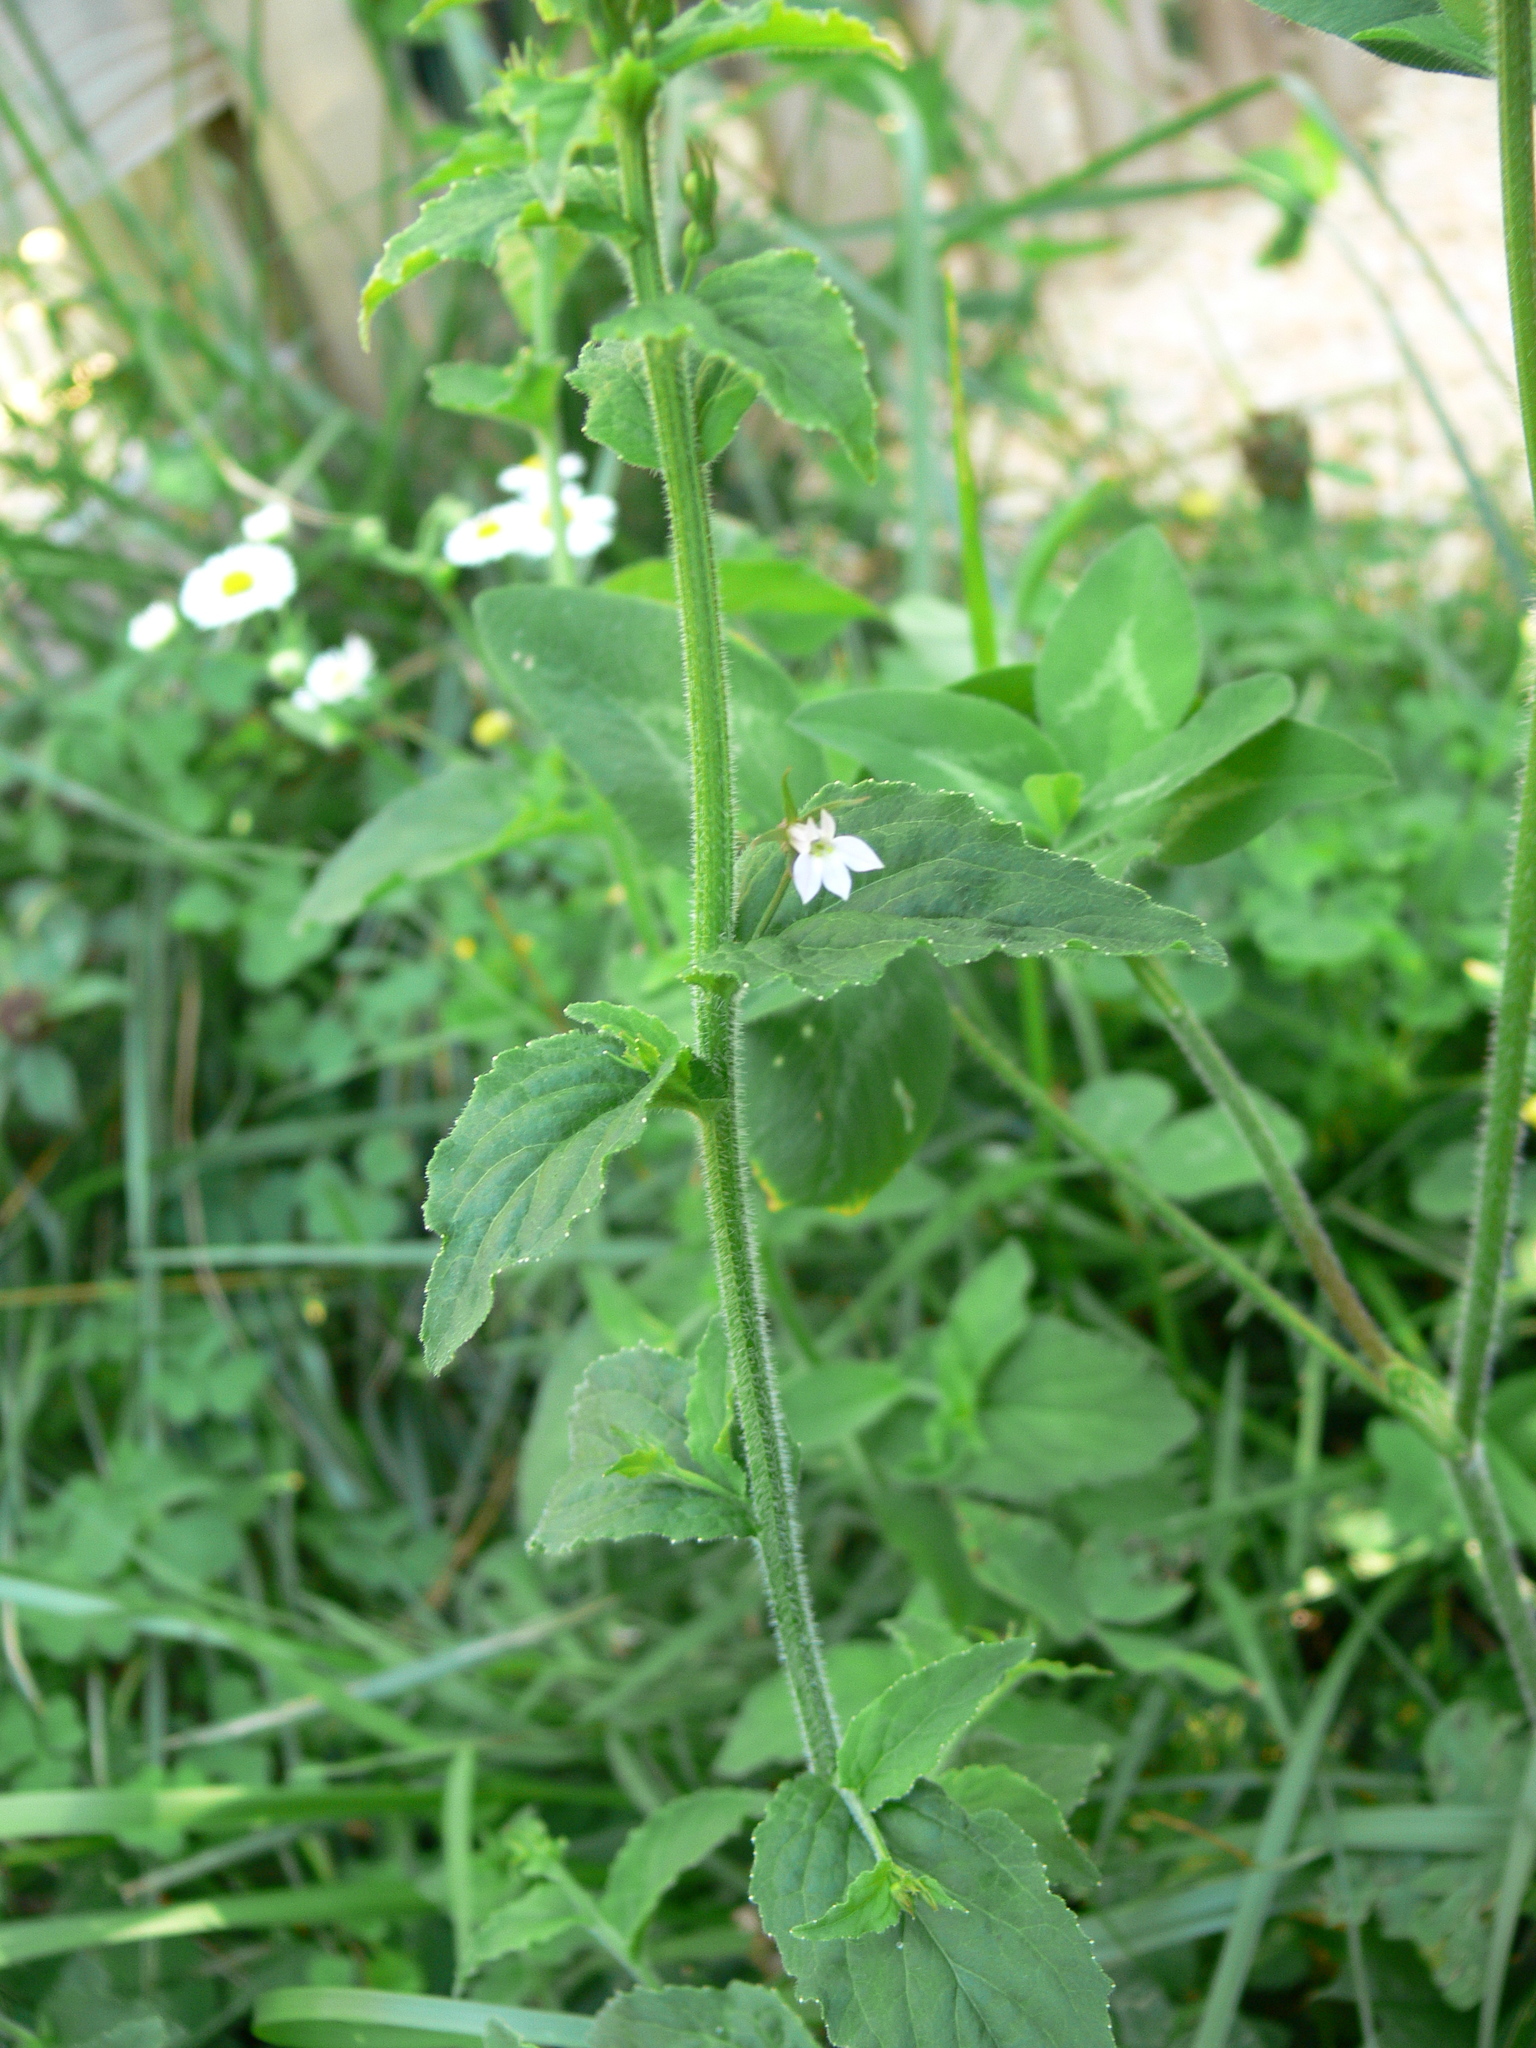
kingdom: Plantae
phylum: Tracheophyta
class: Magnoliopsida
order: Asterales
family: Campanulaceae
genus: Lobelia
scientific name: Lobelia inflata
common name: Indian tobacco
